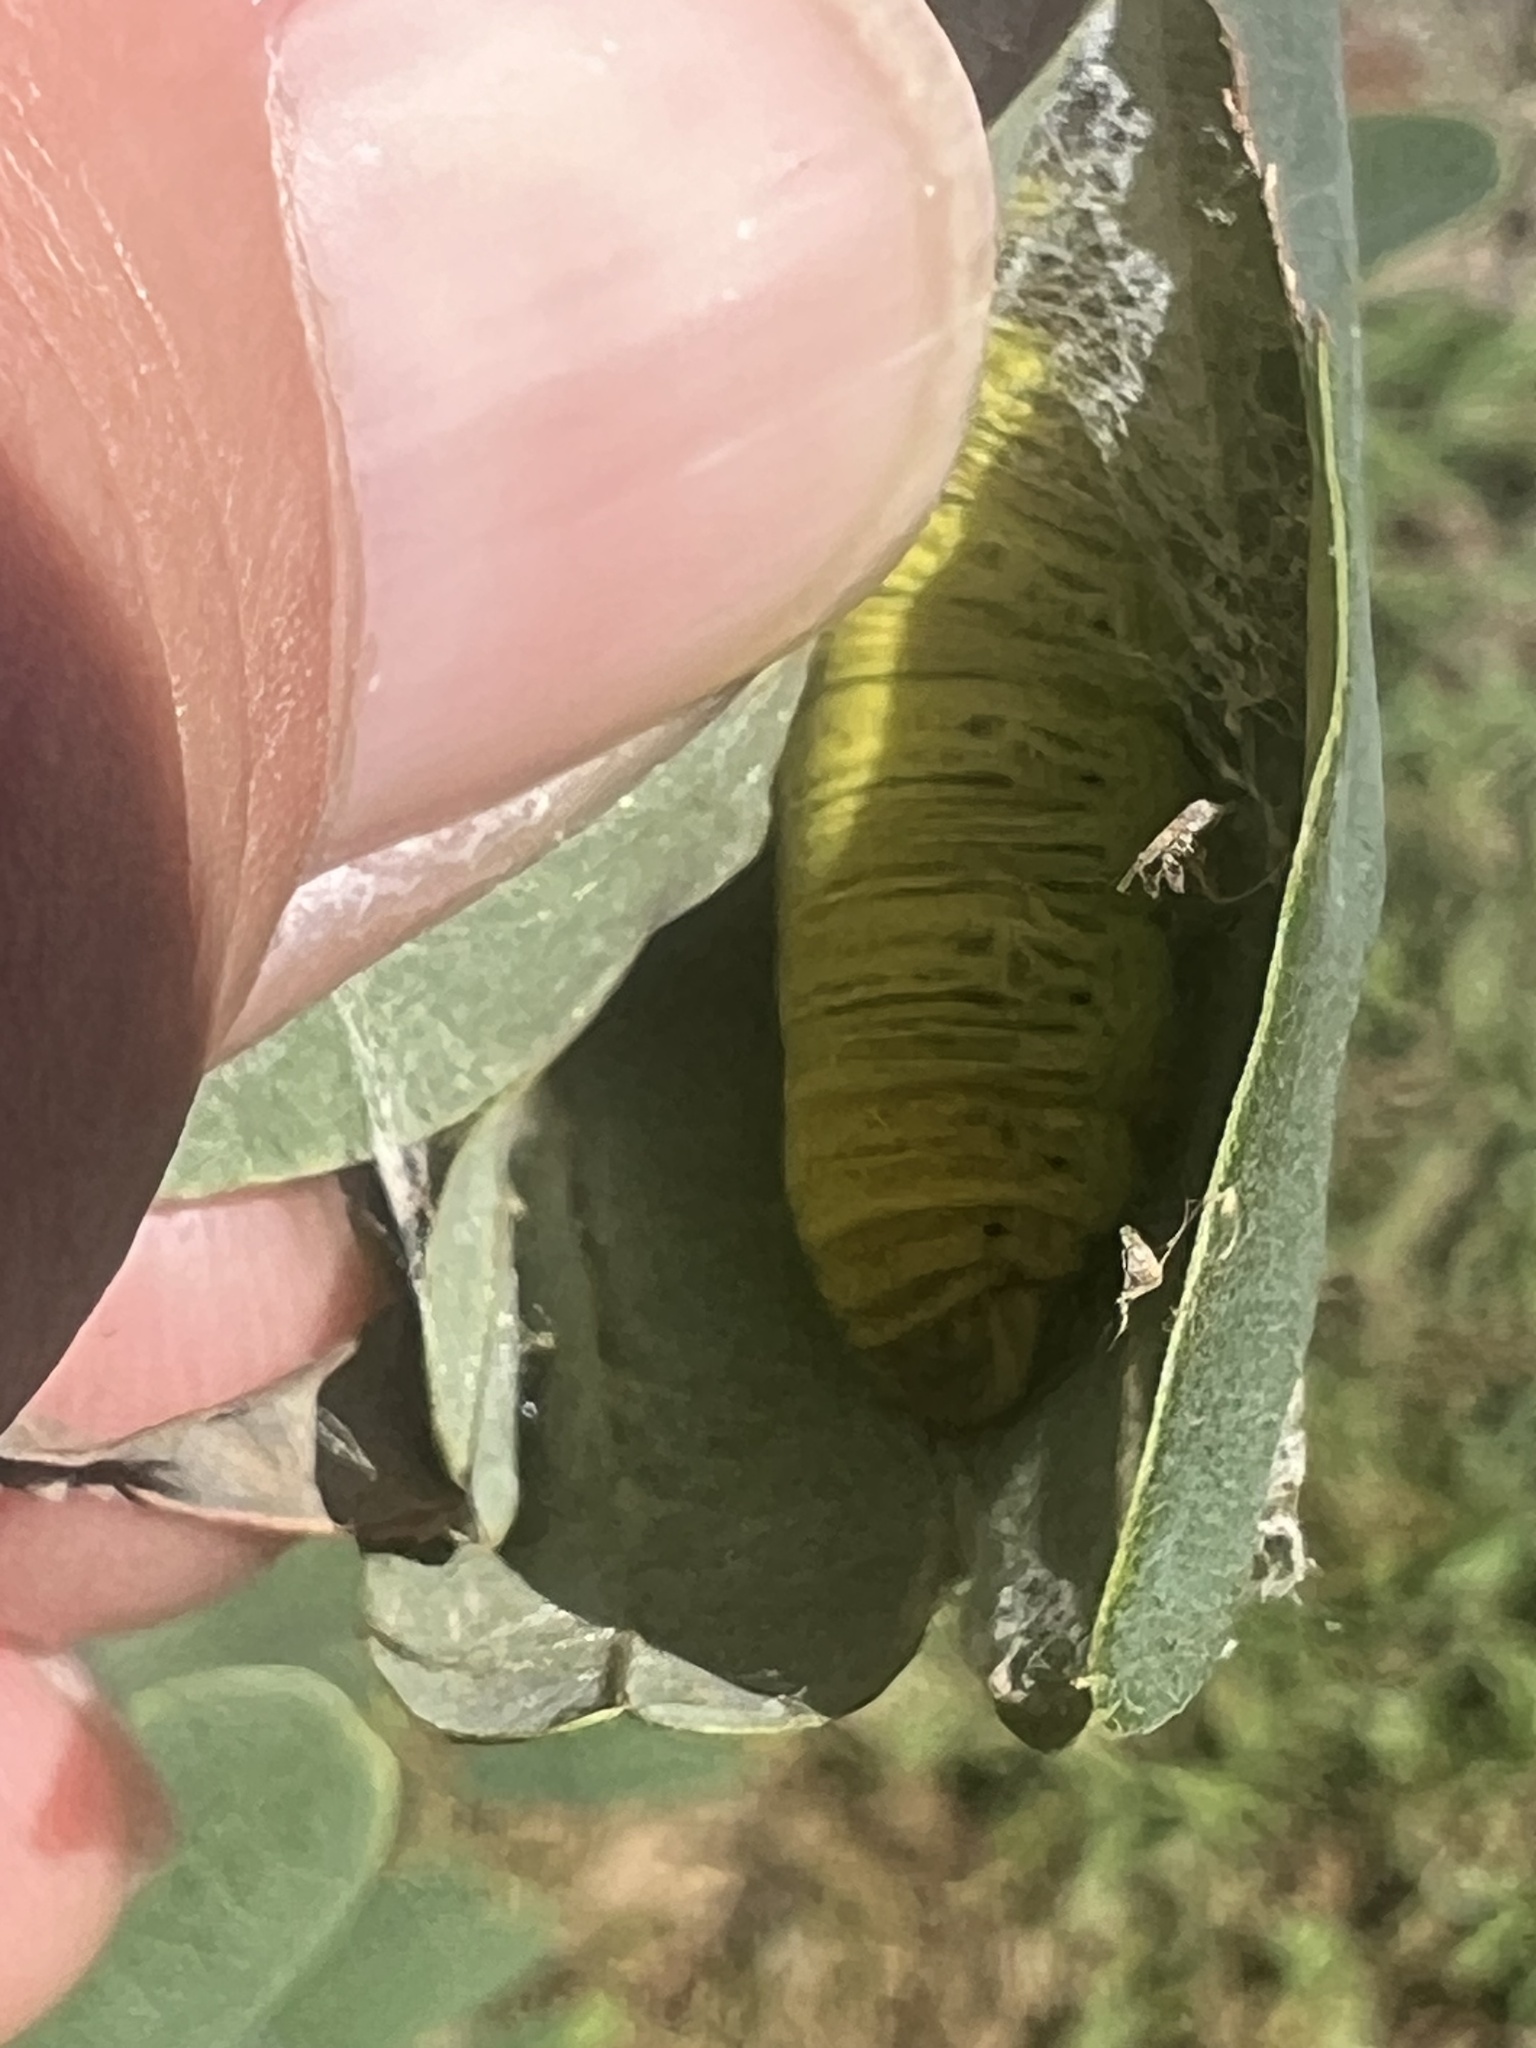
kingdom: Animalia
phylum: Arthropoda
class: Insecta
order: Lepidoptera
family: Hesperiidae
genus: Epargyreus
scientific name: Epargyreus clarus
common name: Silver-spotted skipper
